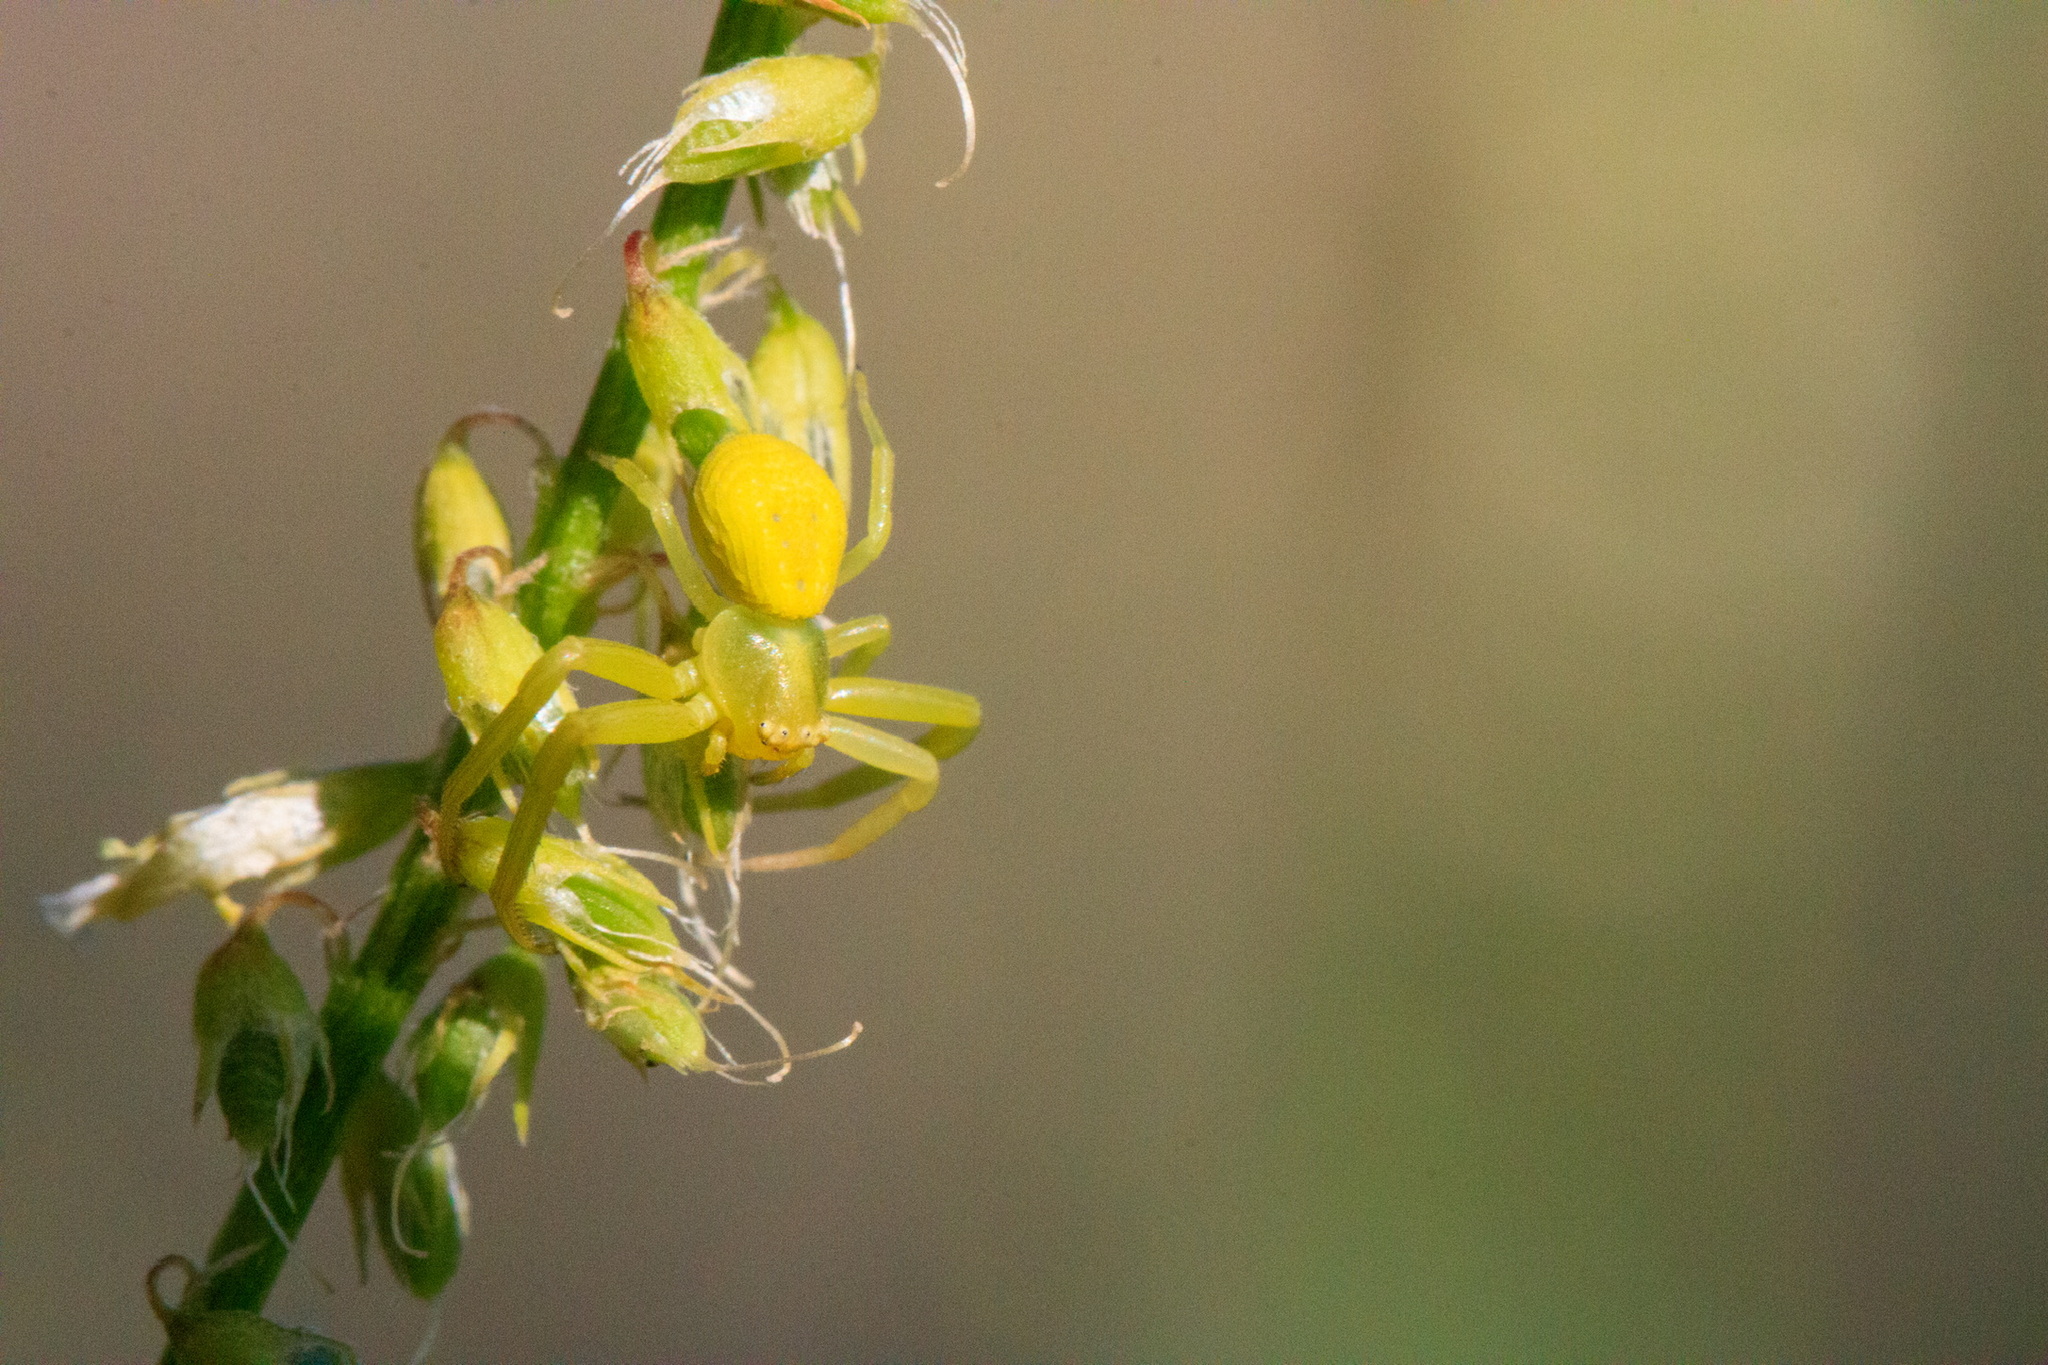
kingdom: Animalia
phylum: Arthropoda
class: Arachnida
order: Araneae
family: Thomisidae
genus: Misumena
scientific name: Misumena vatia
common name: Goldenrod crab spider
